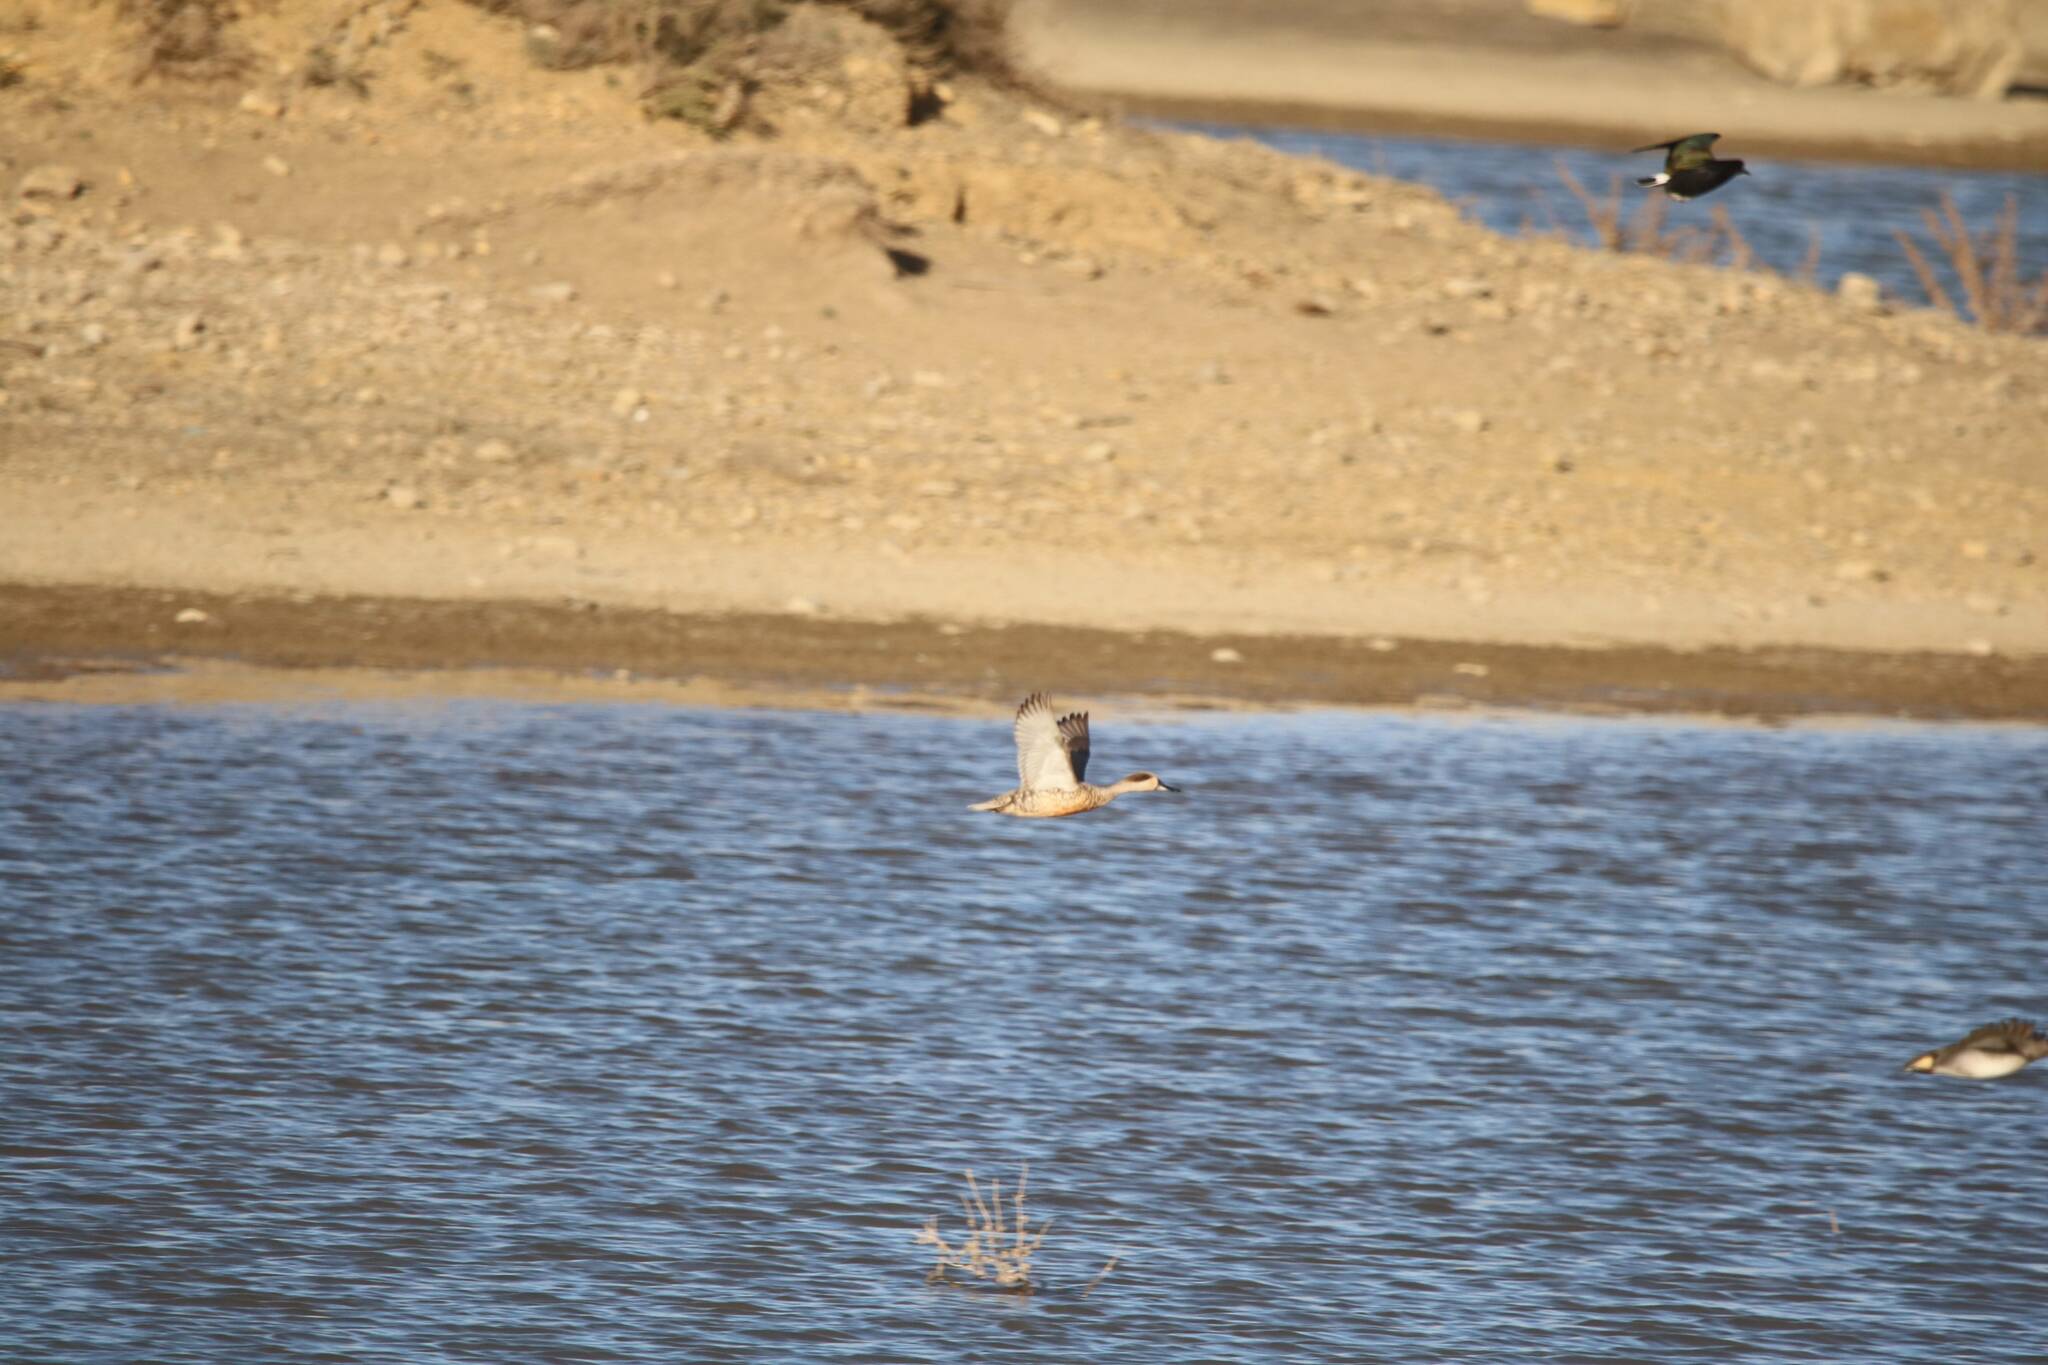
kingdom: Animalia
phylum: Chordata
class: Aves
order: Anseriformes
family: Anatidae
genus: Marmaronetta
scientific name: Marmaronetta angustirostris
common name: Marbled duck
